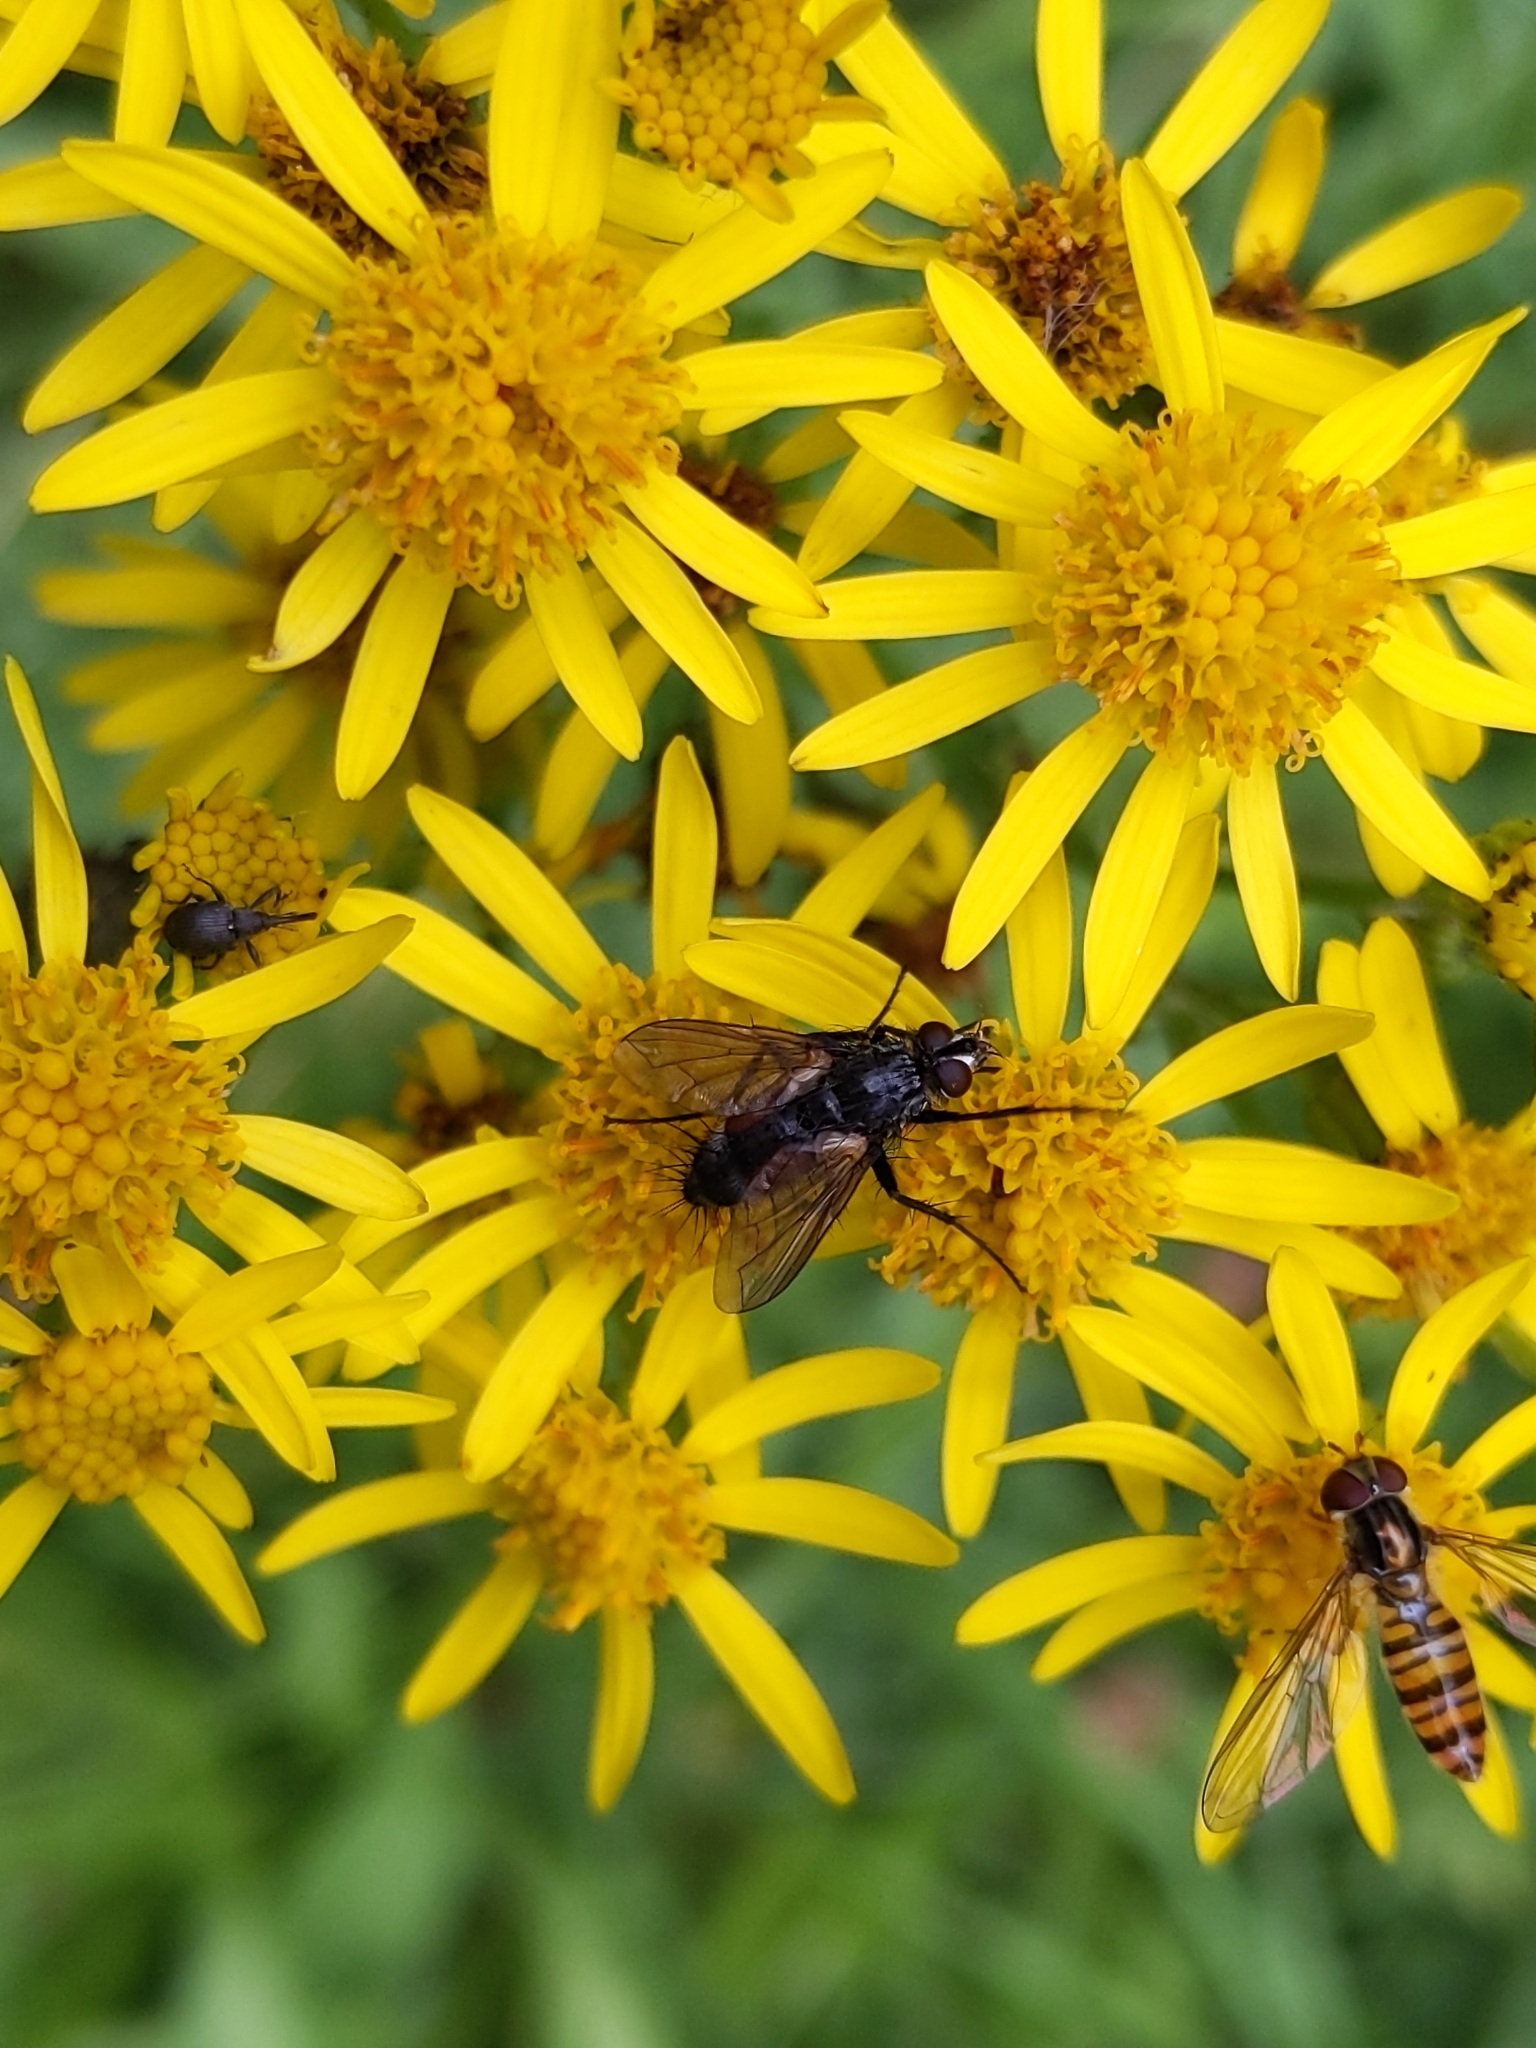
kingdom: Animalia
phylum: Arthropoda
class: Insecta
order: Diptera
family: Tachinidae
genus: Eriothrix
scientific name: Eriothrix rufomaculatus
